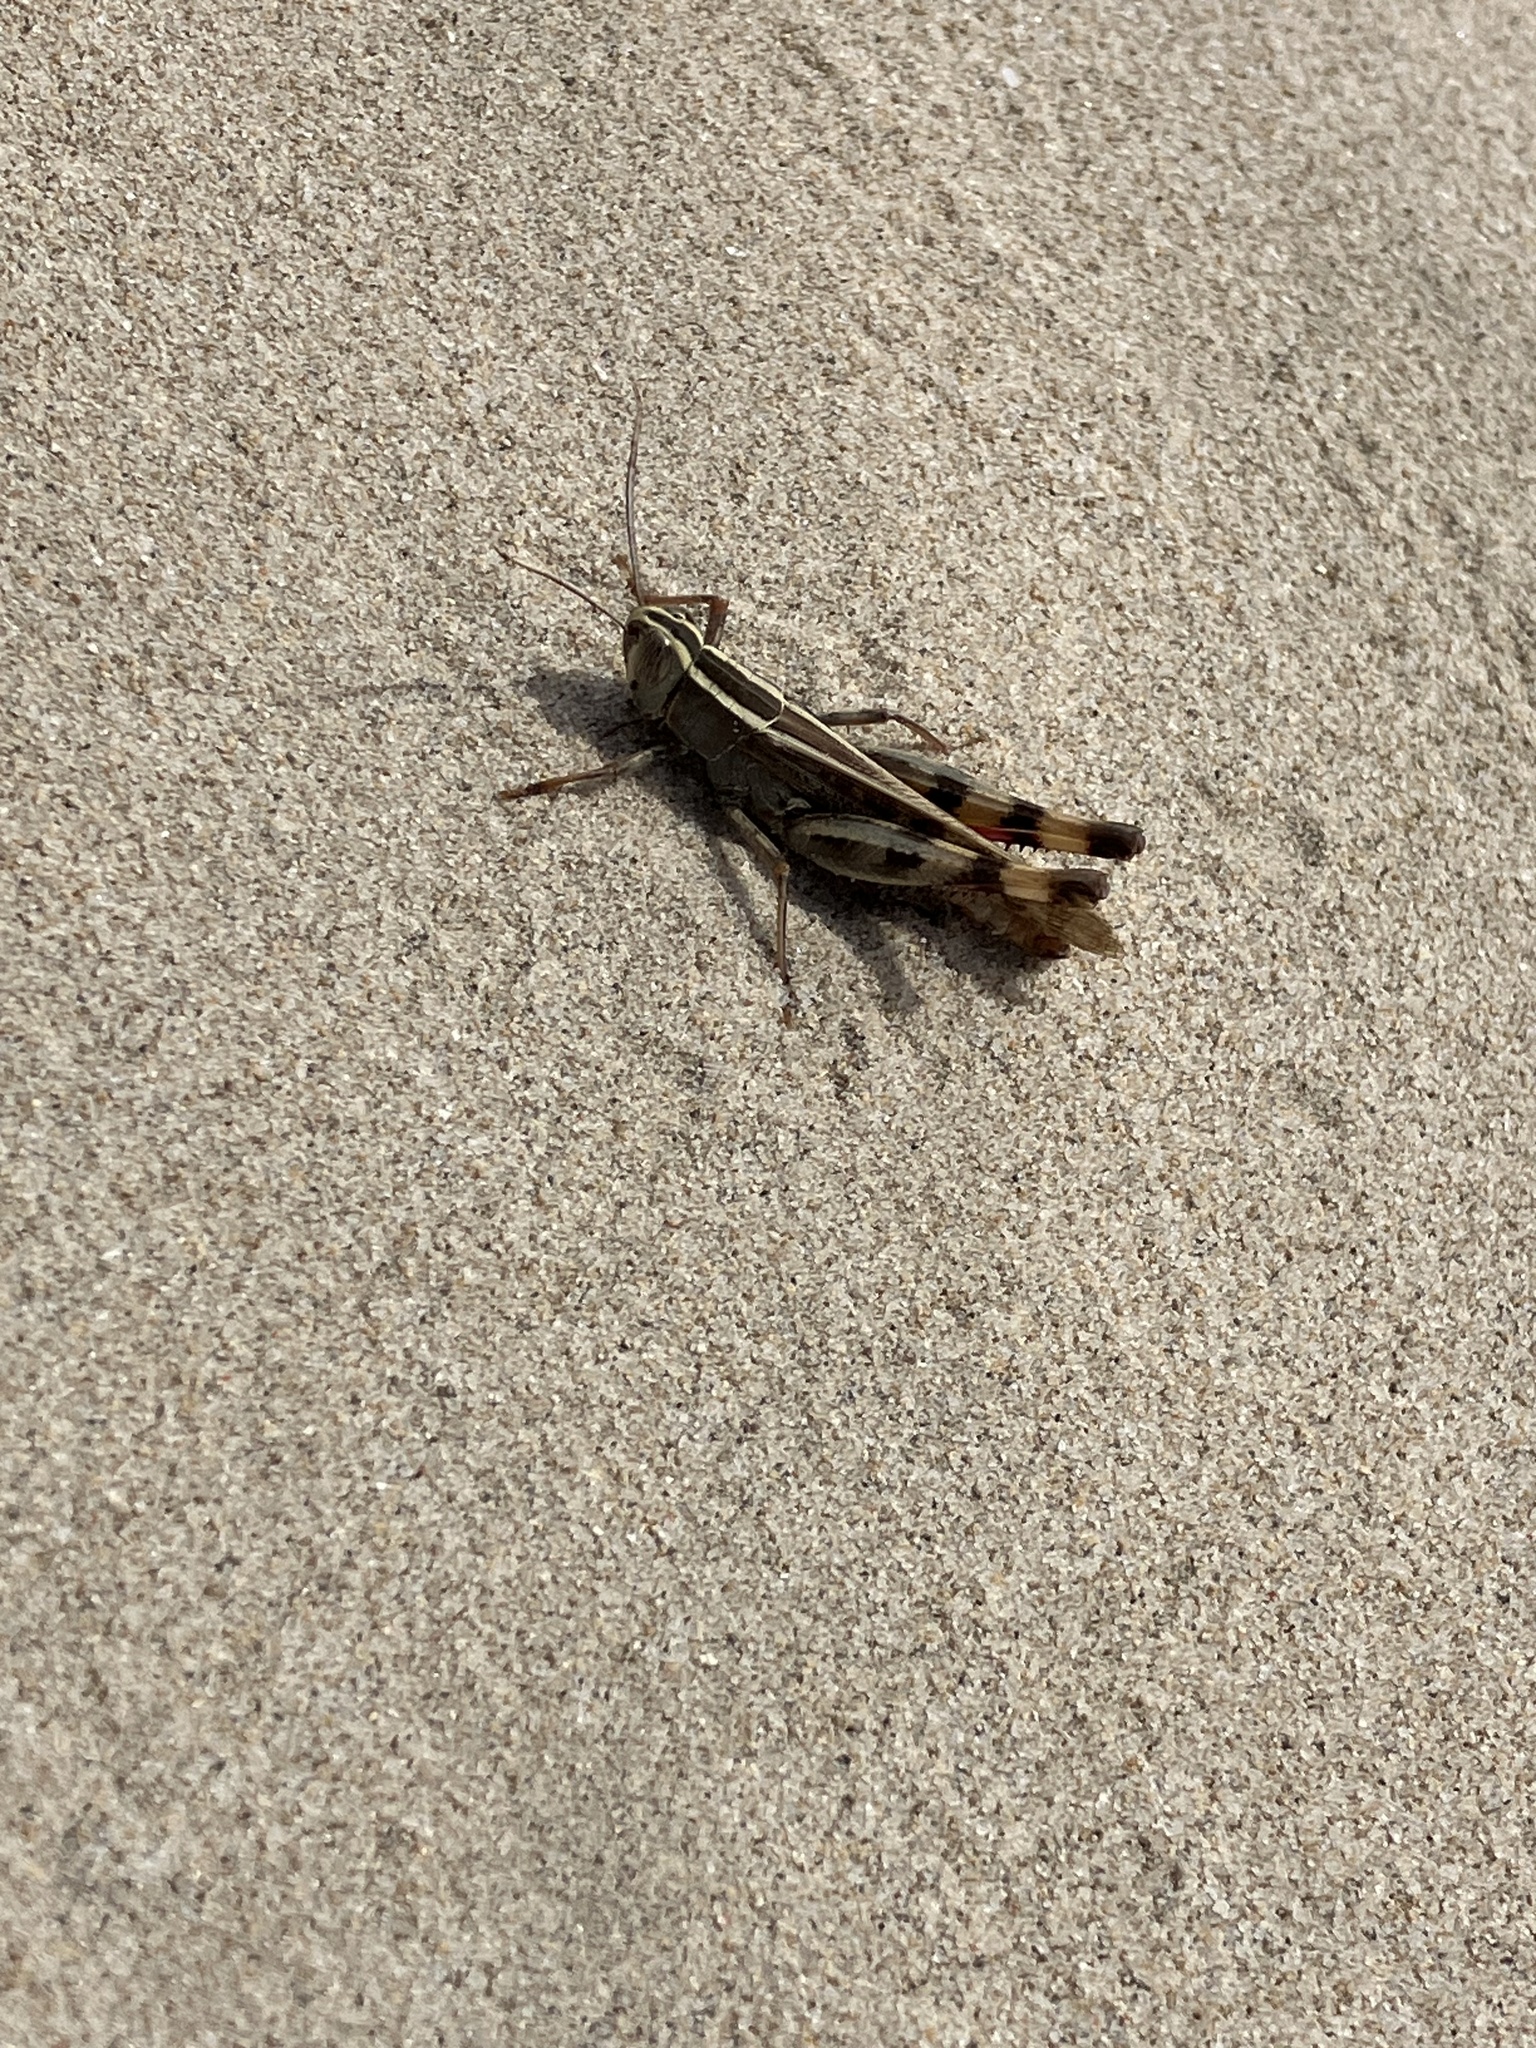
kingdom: Animalia
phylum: Arthropoda
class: Insecta
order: Orthoptera
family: Acrididae
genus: Heteracris
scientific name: Heteracris littoralis
